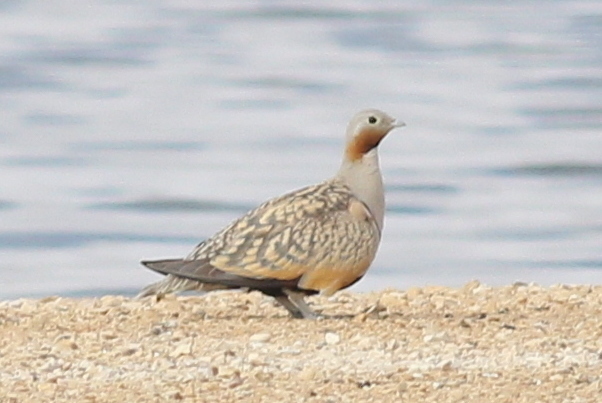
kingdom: Animalia
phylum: Chordata
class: Aves
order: Pteroclidiformes
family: Pteroclididae
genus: Pterocles
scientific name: Pterocles orientalis
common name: Black-bellied sandgrouse
